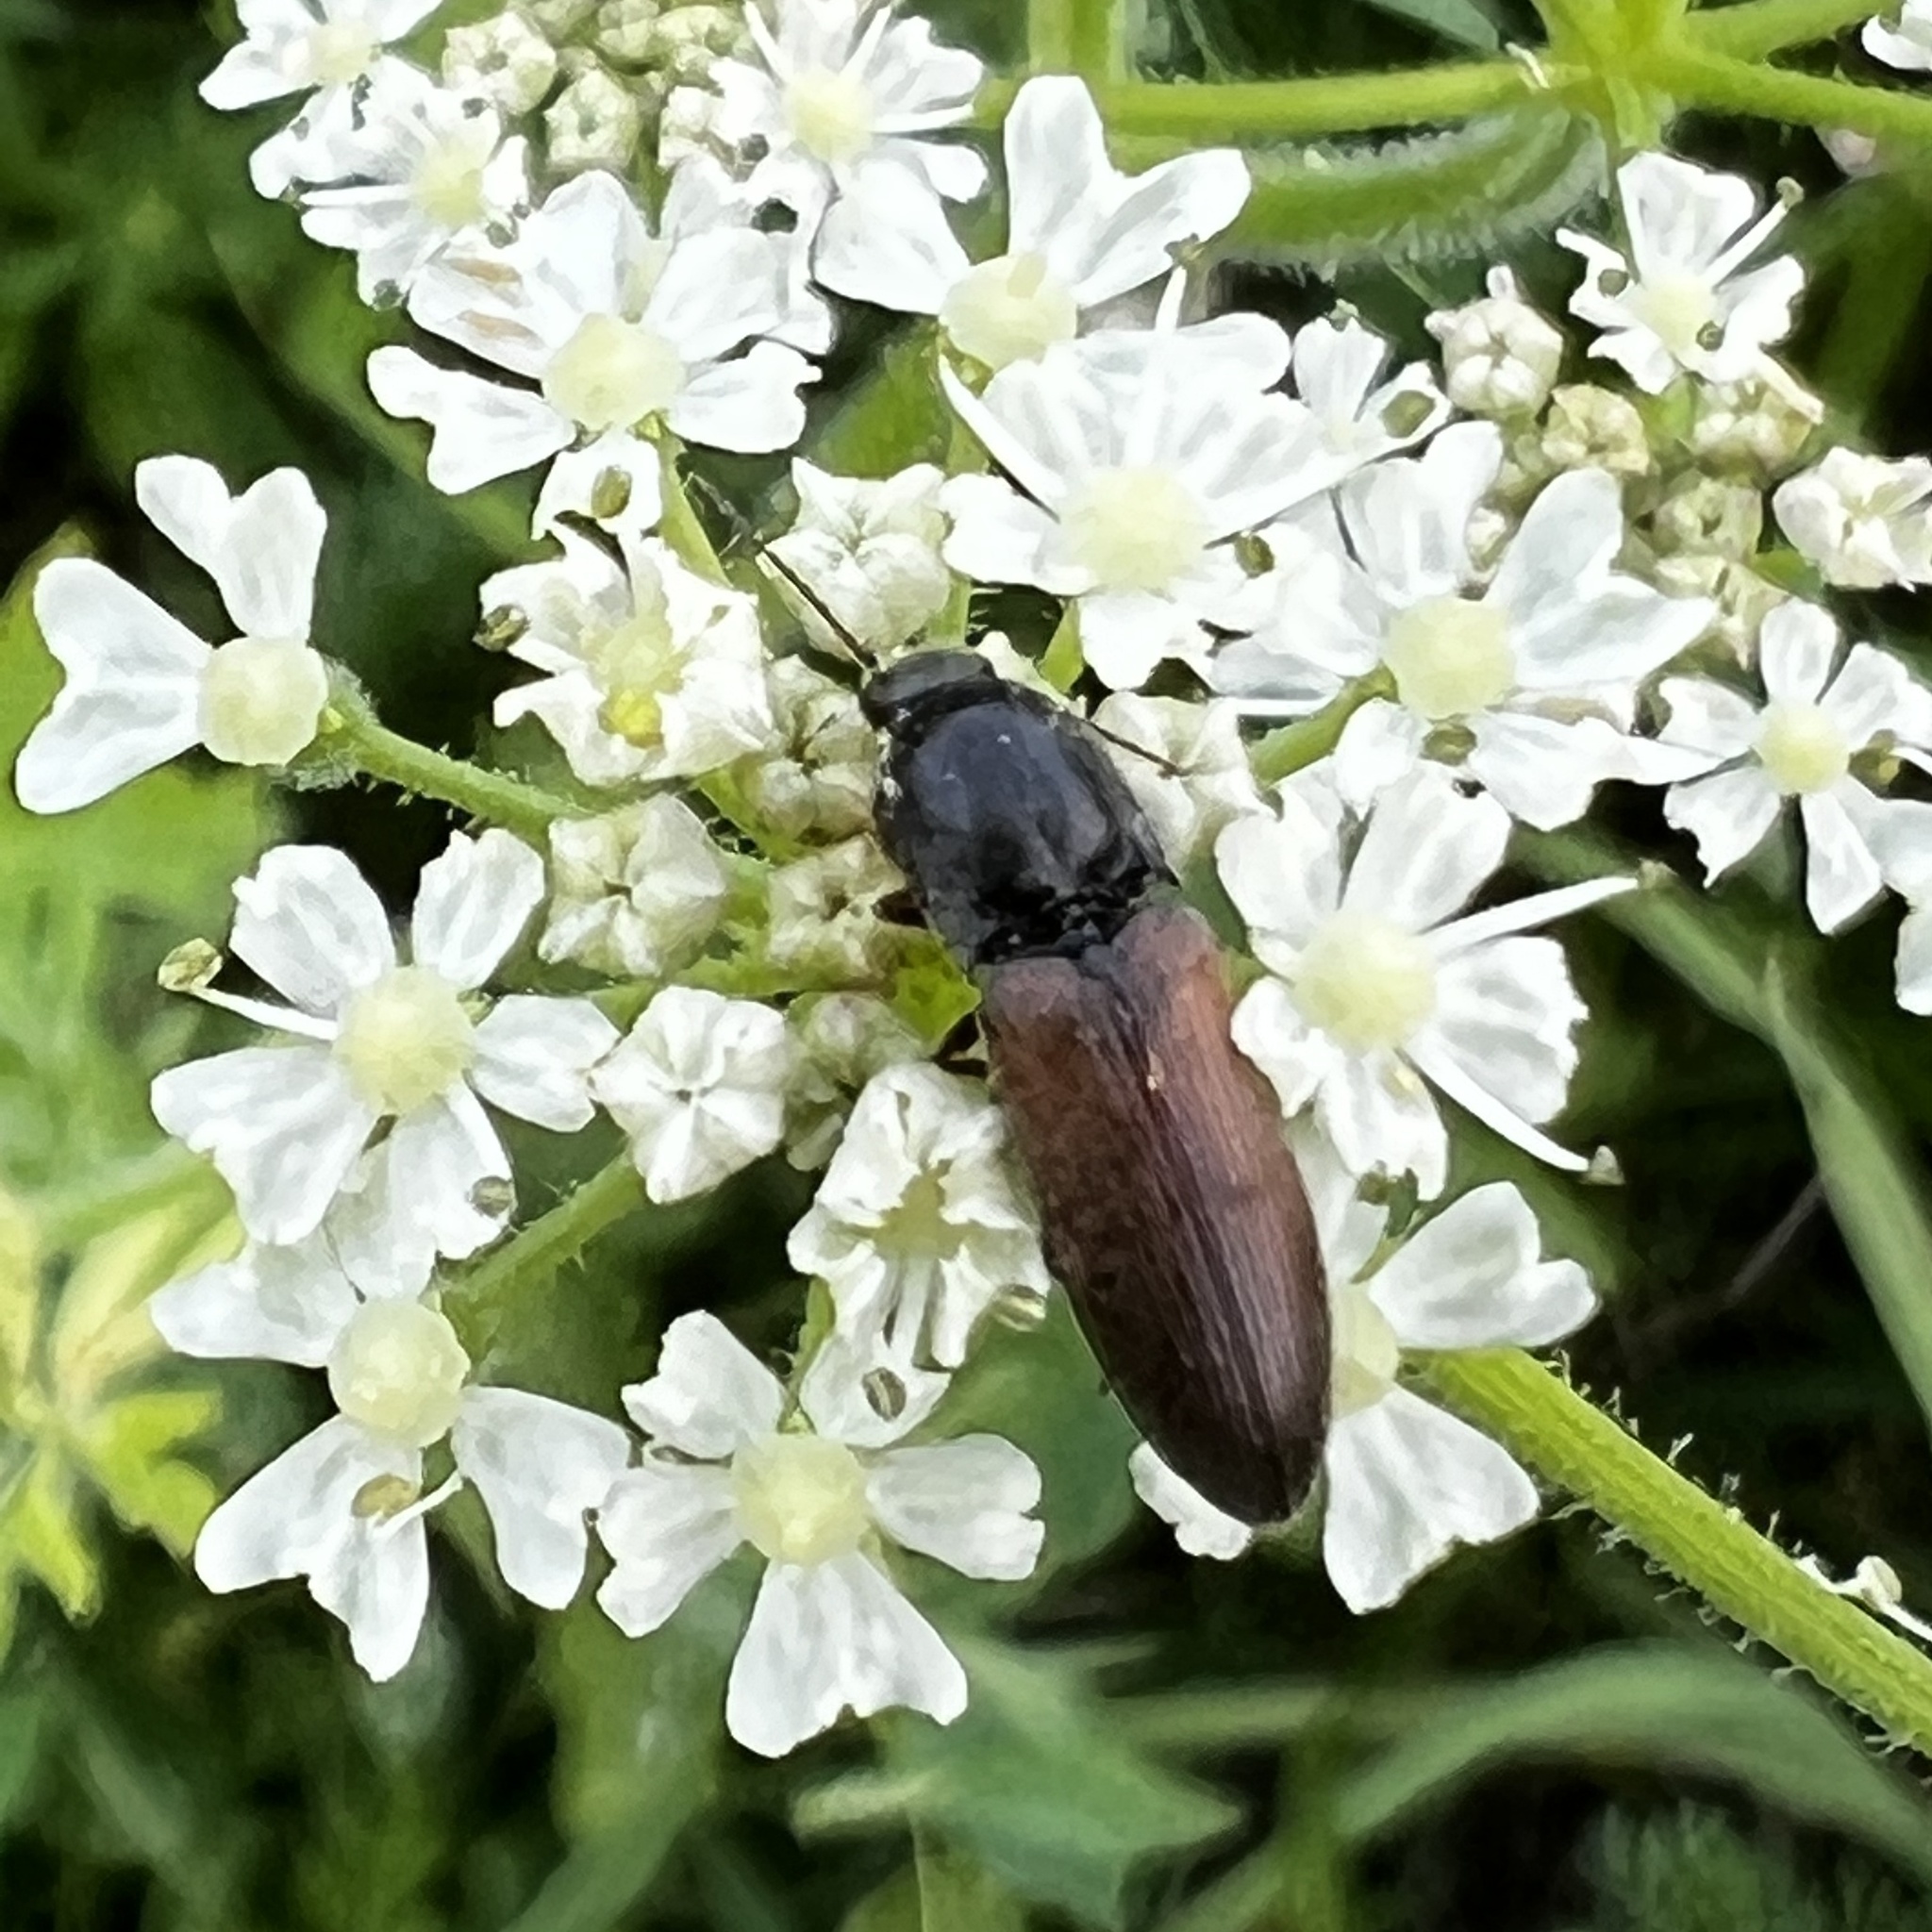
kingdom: Animalia
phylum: Arthropoda
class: Insecta
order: Coleoptera
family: Elateridae
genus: Agriotes
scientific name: Agriotes ustulatus
